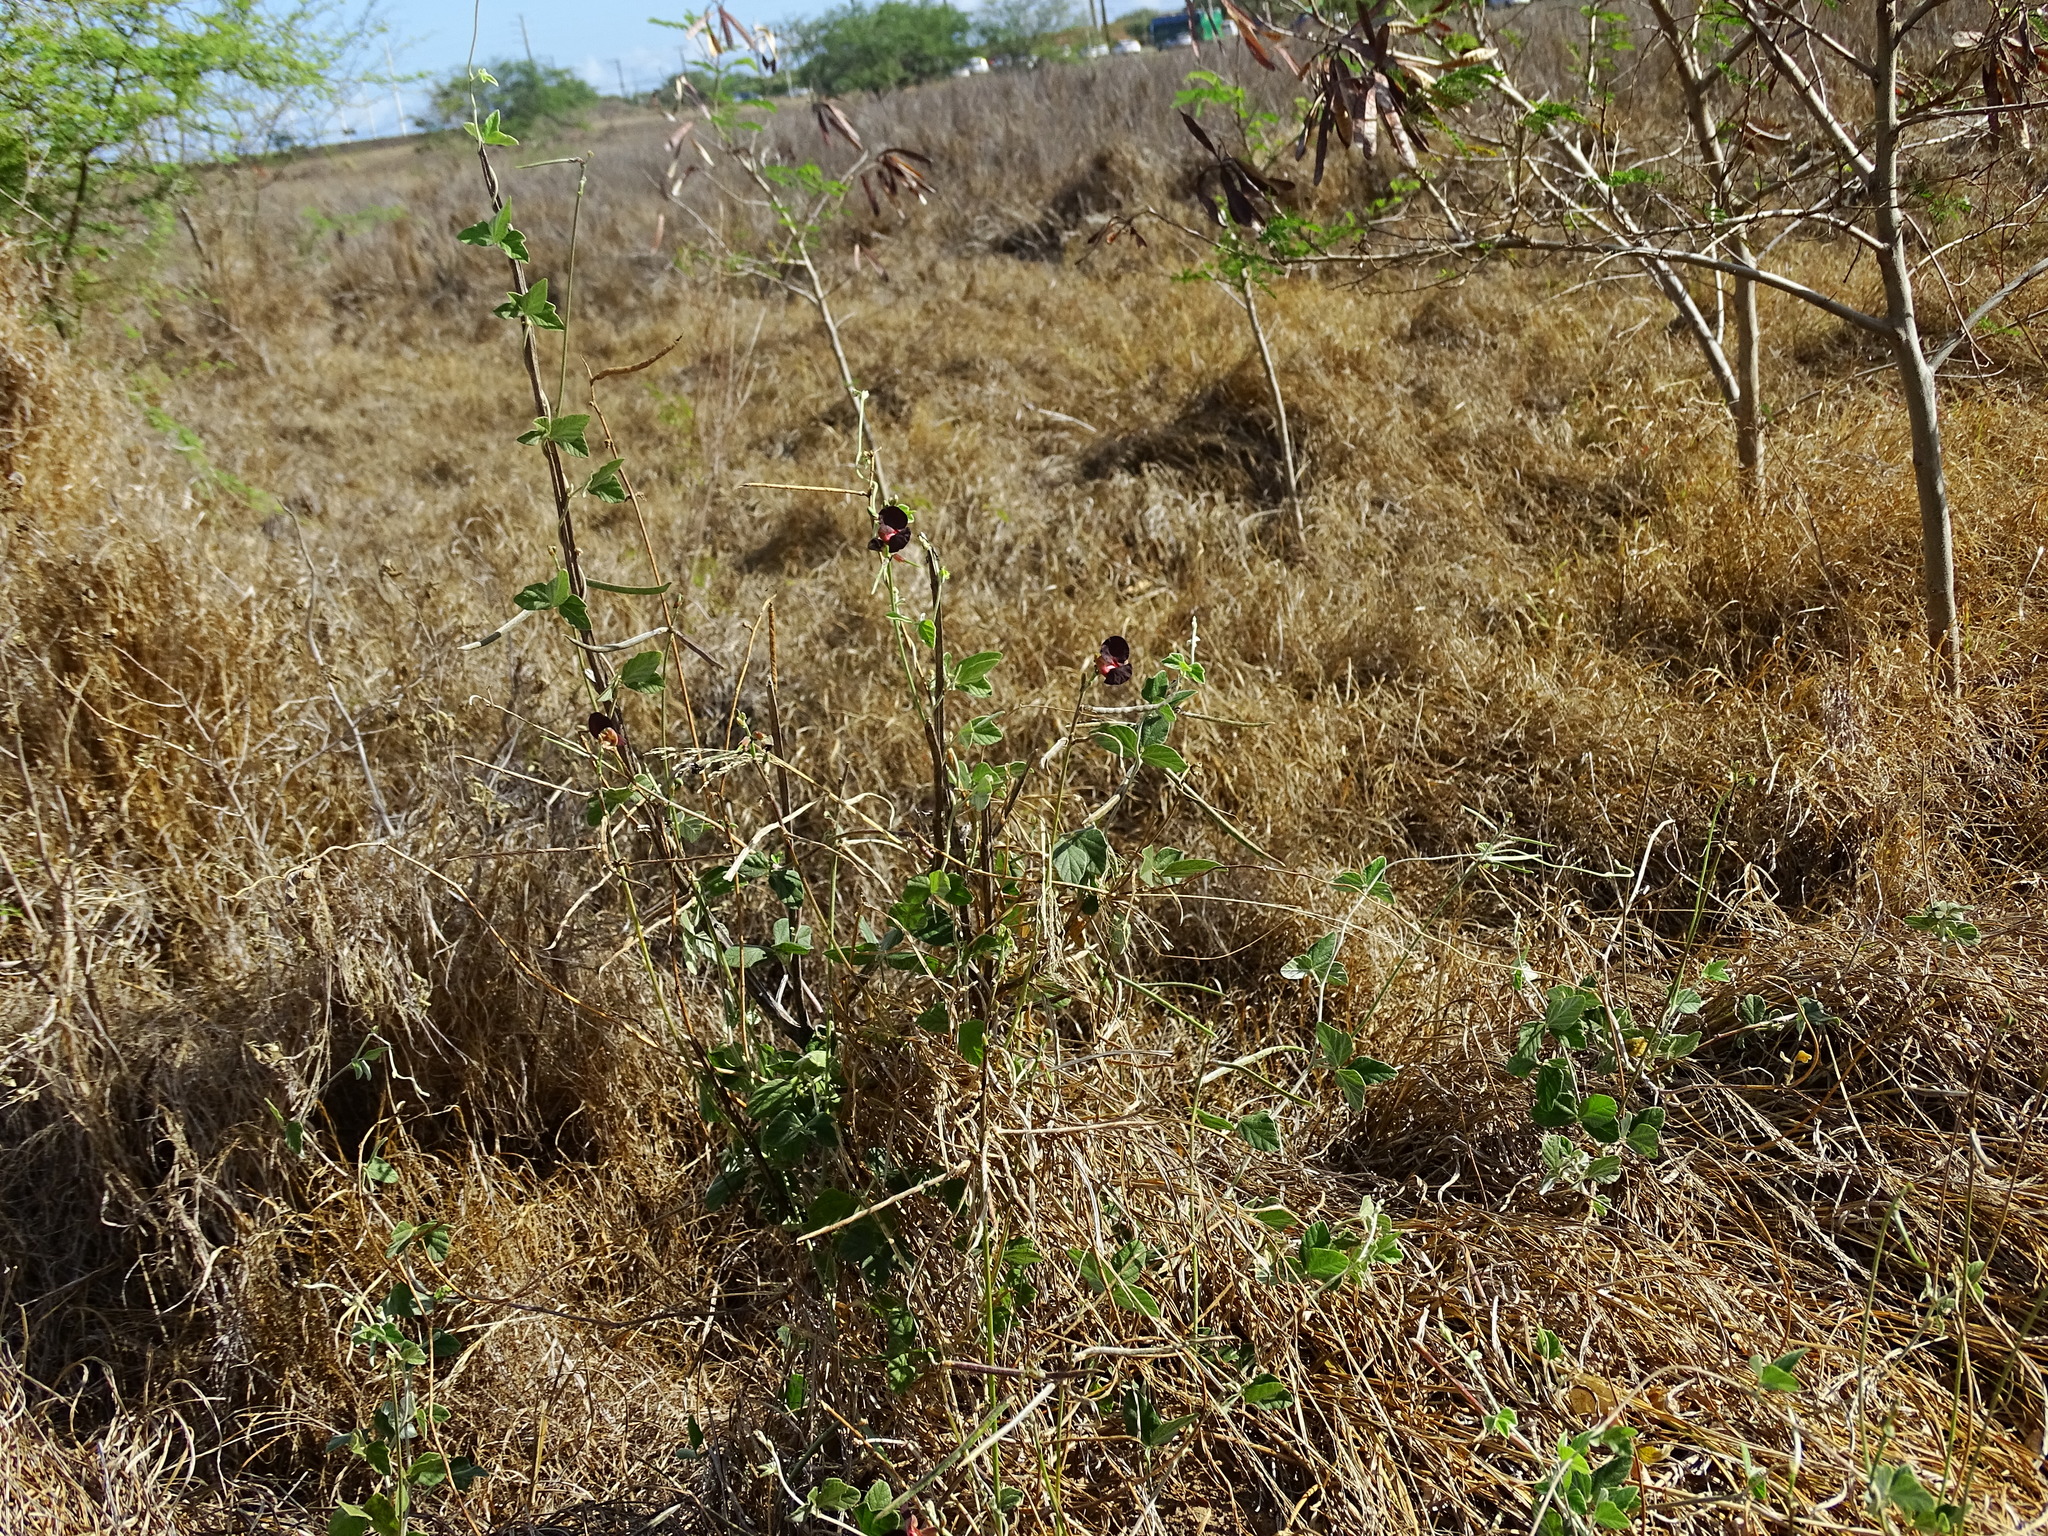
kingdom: Plantae
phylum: Tracheophyta
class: Magnoliopsida
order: Fabales
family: Fabaceae
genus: Macroptilium
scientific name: Macroptilium atropurpureum
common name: Purple bushbean
